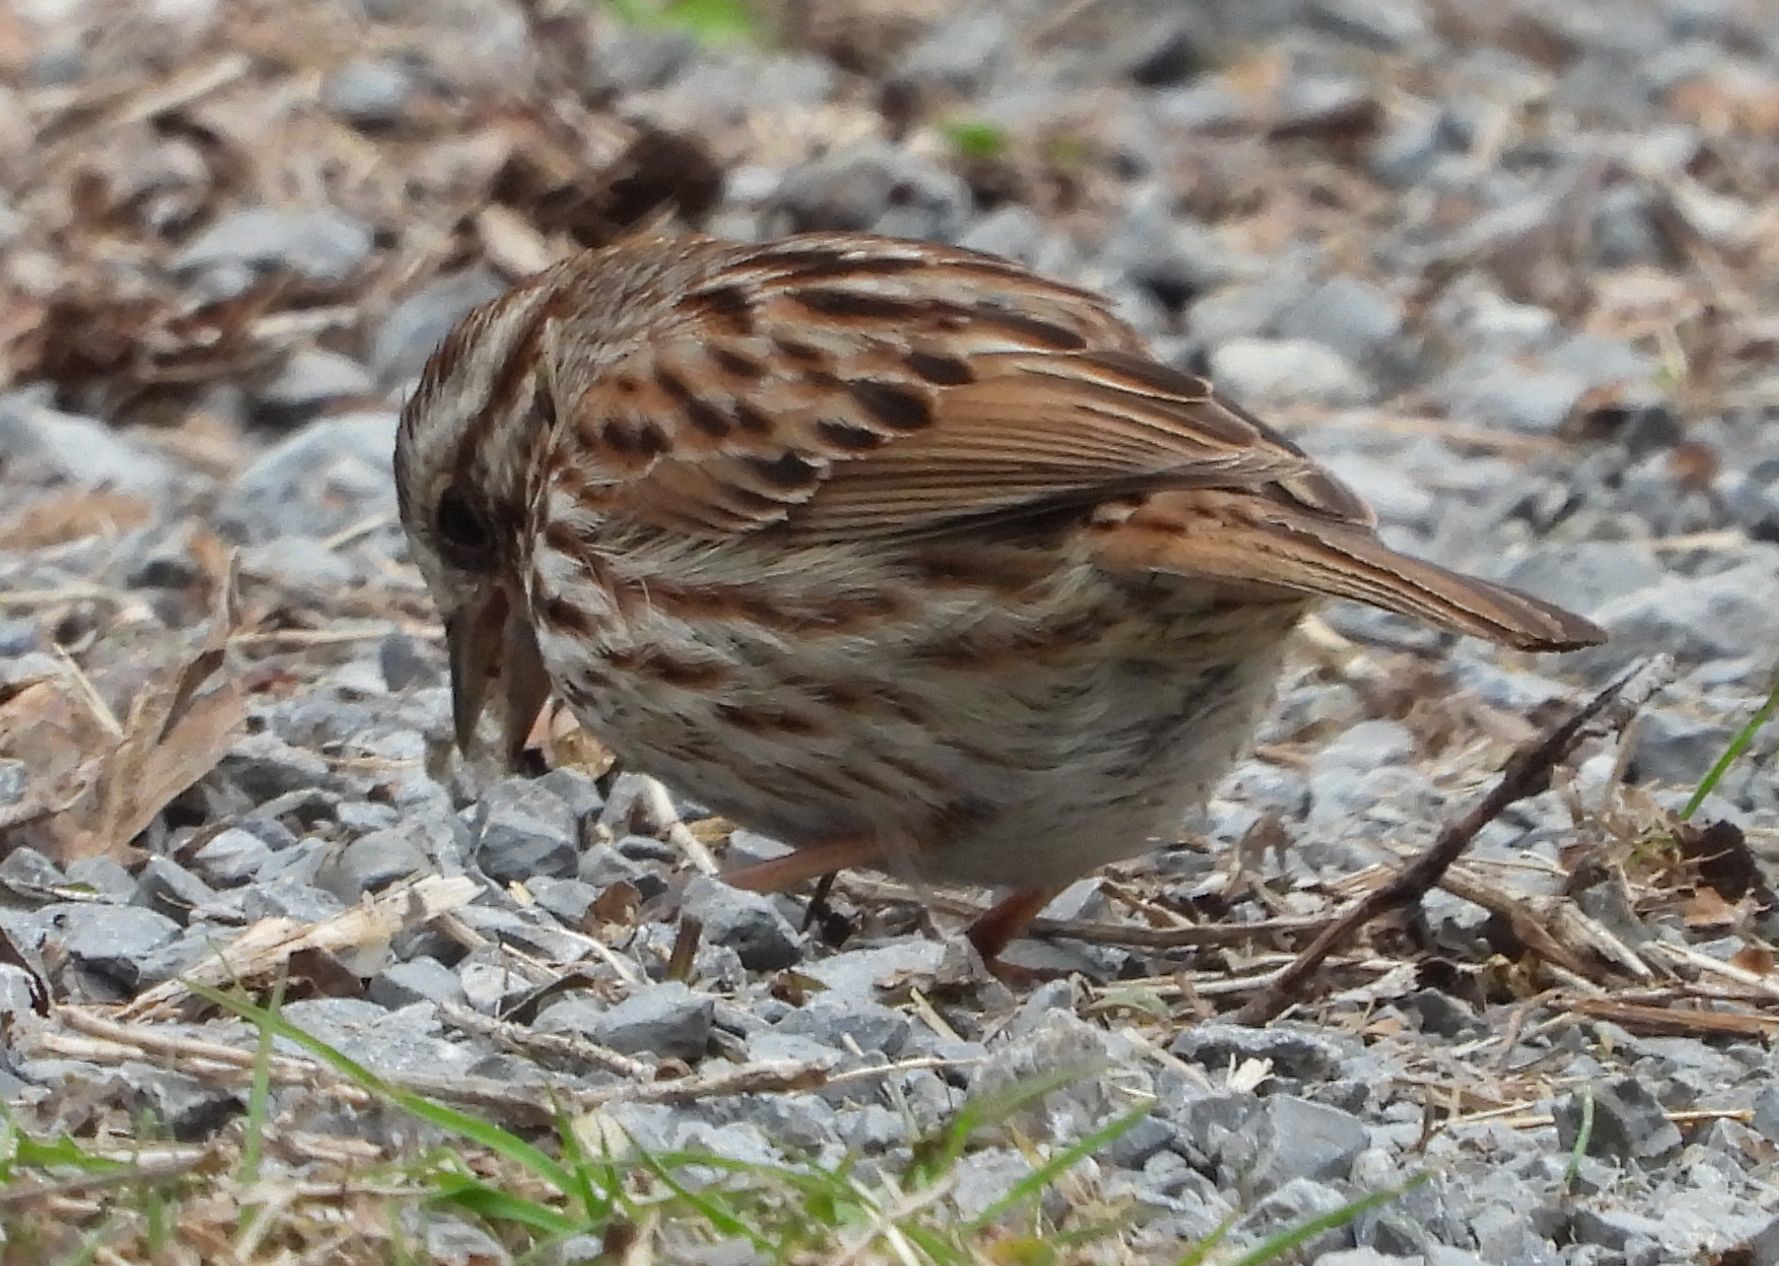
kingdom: Animalia
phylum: Chordata
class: Aves
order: Passeriformes
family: Passerellidae
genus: Melospiza
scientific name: Melospiza melodia
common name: Song sparrow
